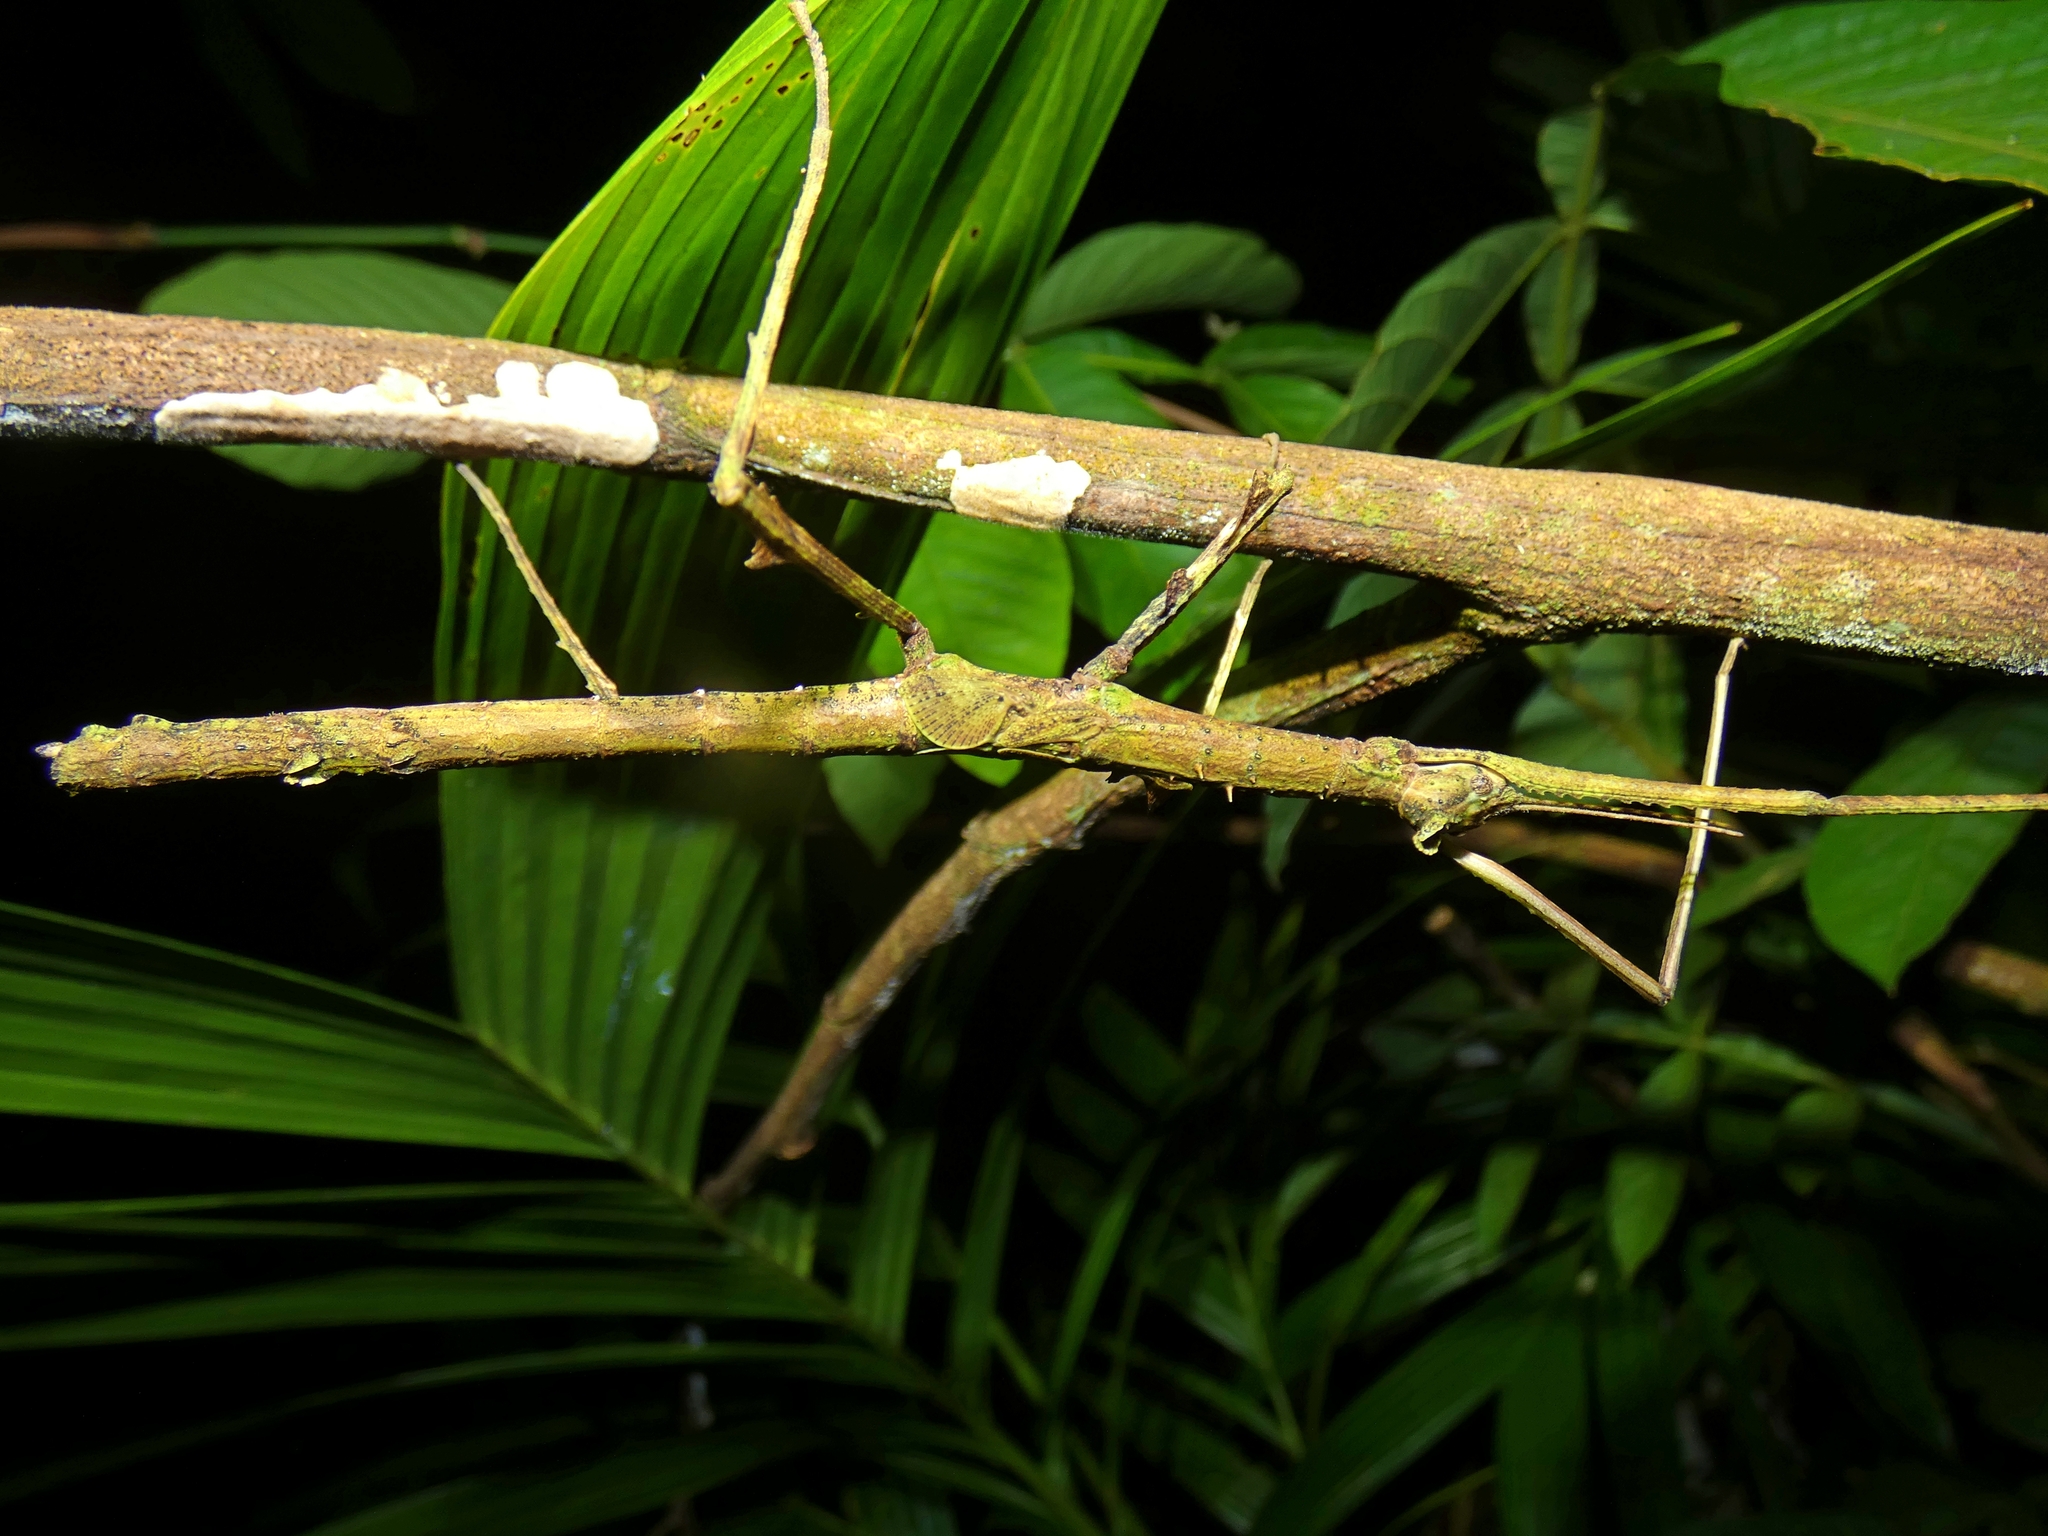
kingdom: Animalia
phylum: Arthropoda
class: Insecta
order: Phasmida
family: Phasmatidae
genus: Onchestus
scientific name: Onchestus rentzi
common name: Rentz's stick-insect
